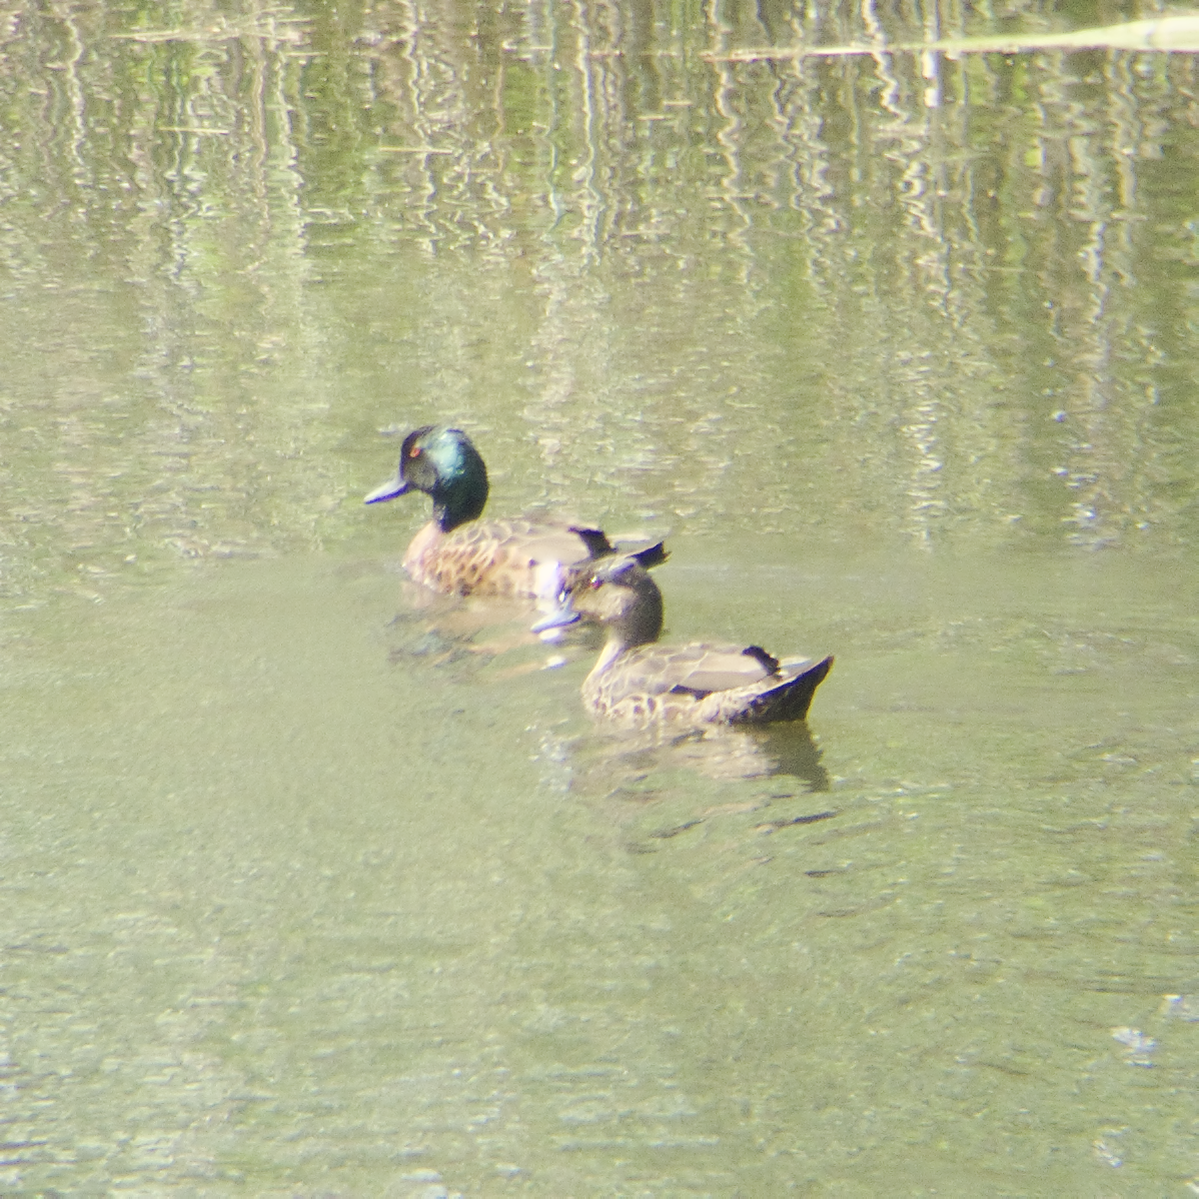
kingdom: Animalia
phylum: Chordata
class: Aves
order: Anseriformes
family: Anatidae
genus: Anas
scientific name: Anas castanea
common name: Chestnut teal
